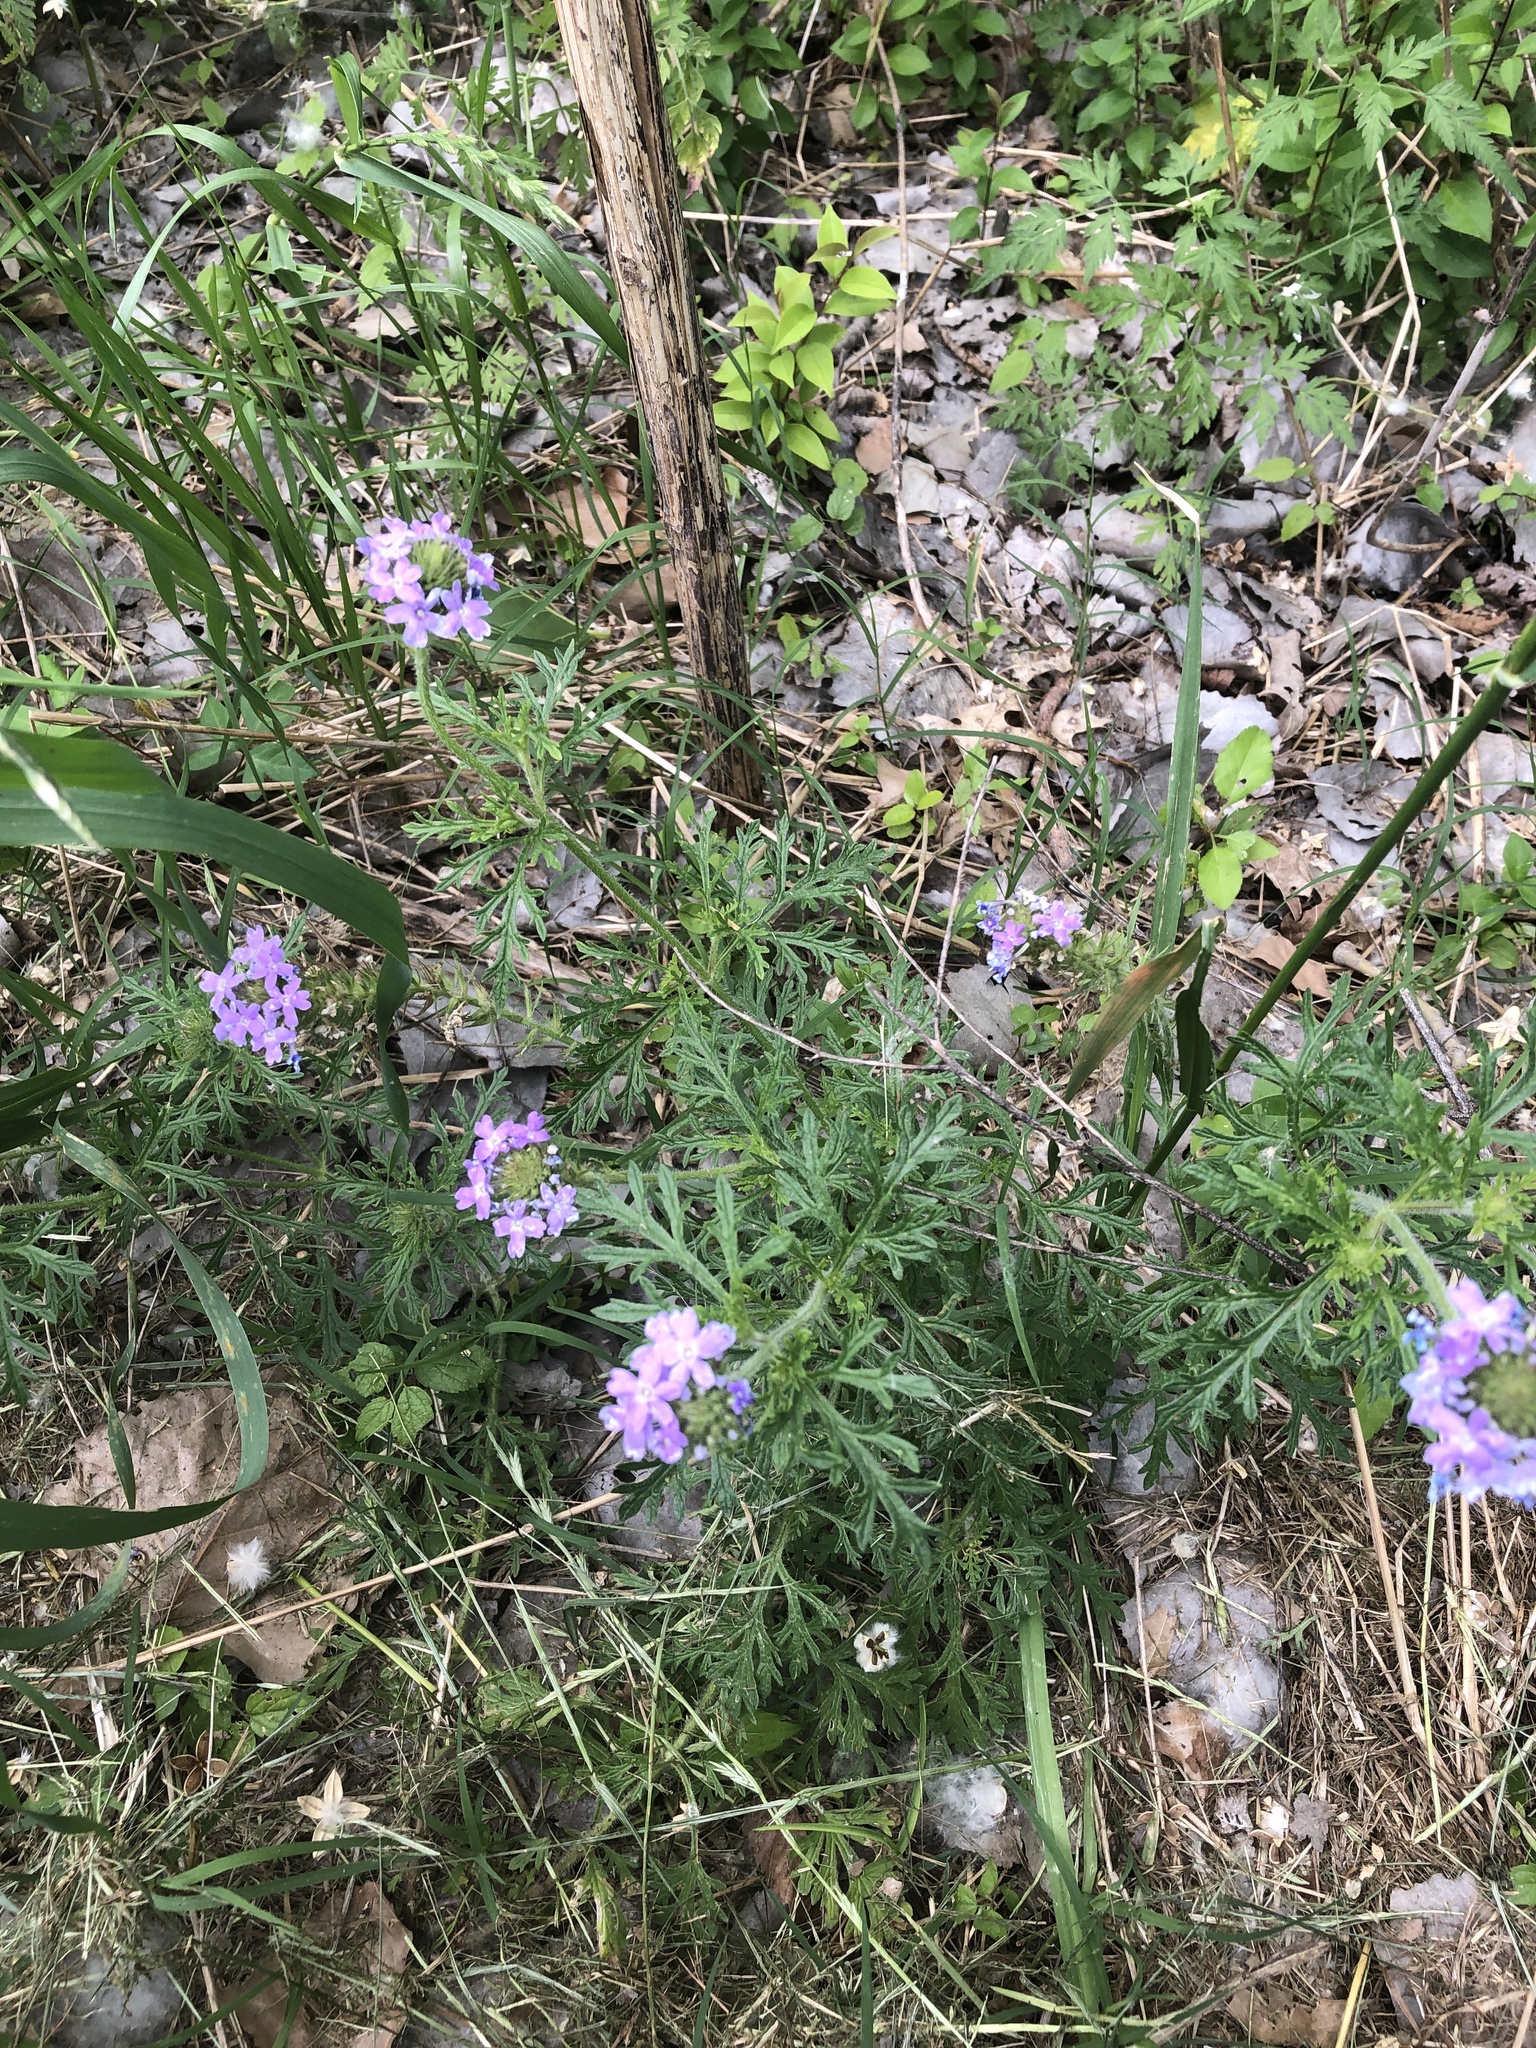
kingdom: Plantae
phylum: Tracheophyta
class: Magnoliopsida
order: Lamiales
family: Verbenaceae
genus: Verbena
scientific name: Verbena bipinnatifida
